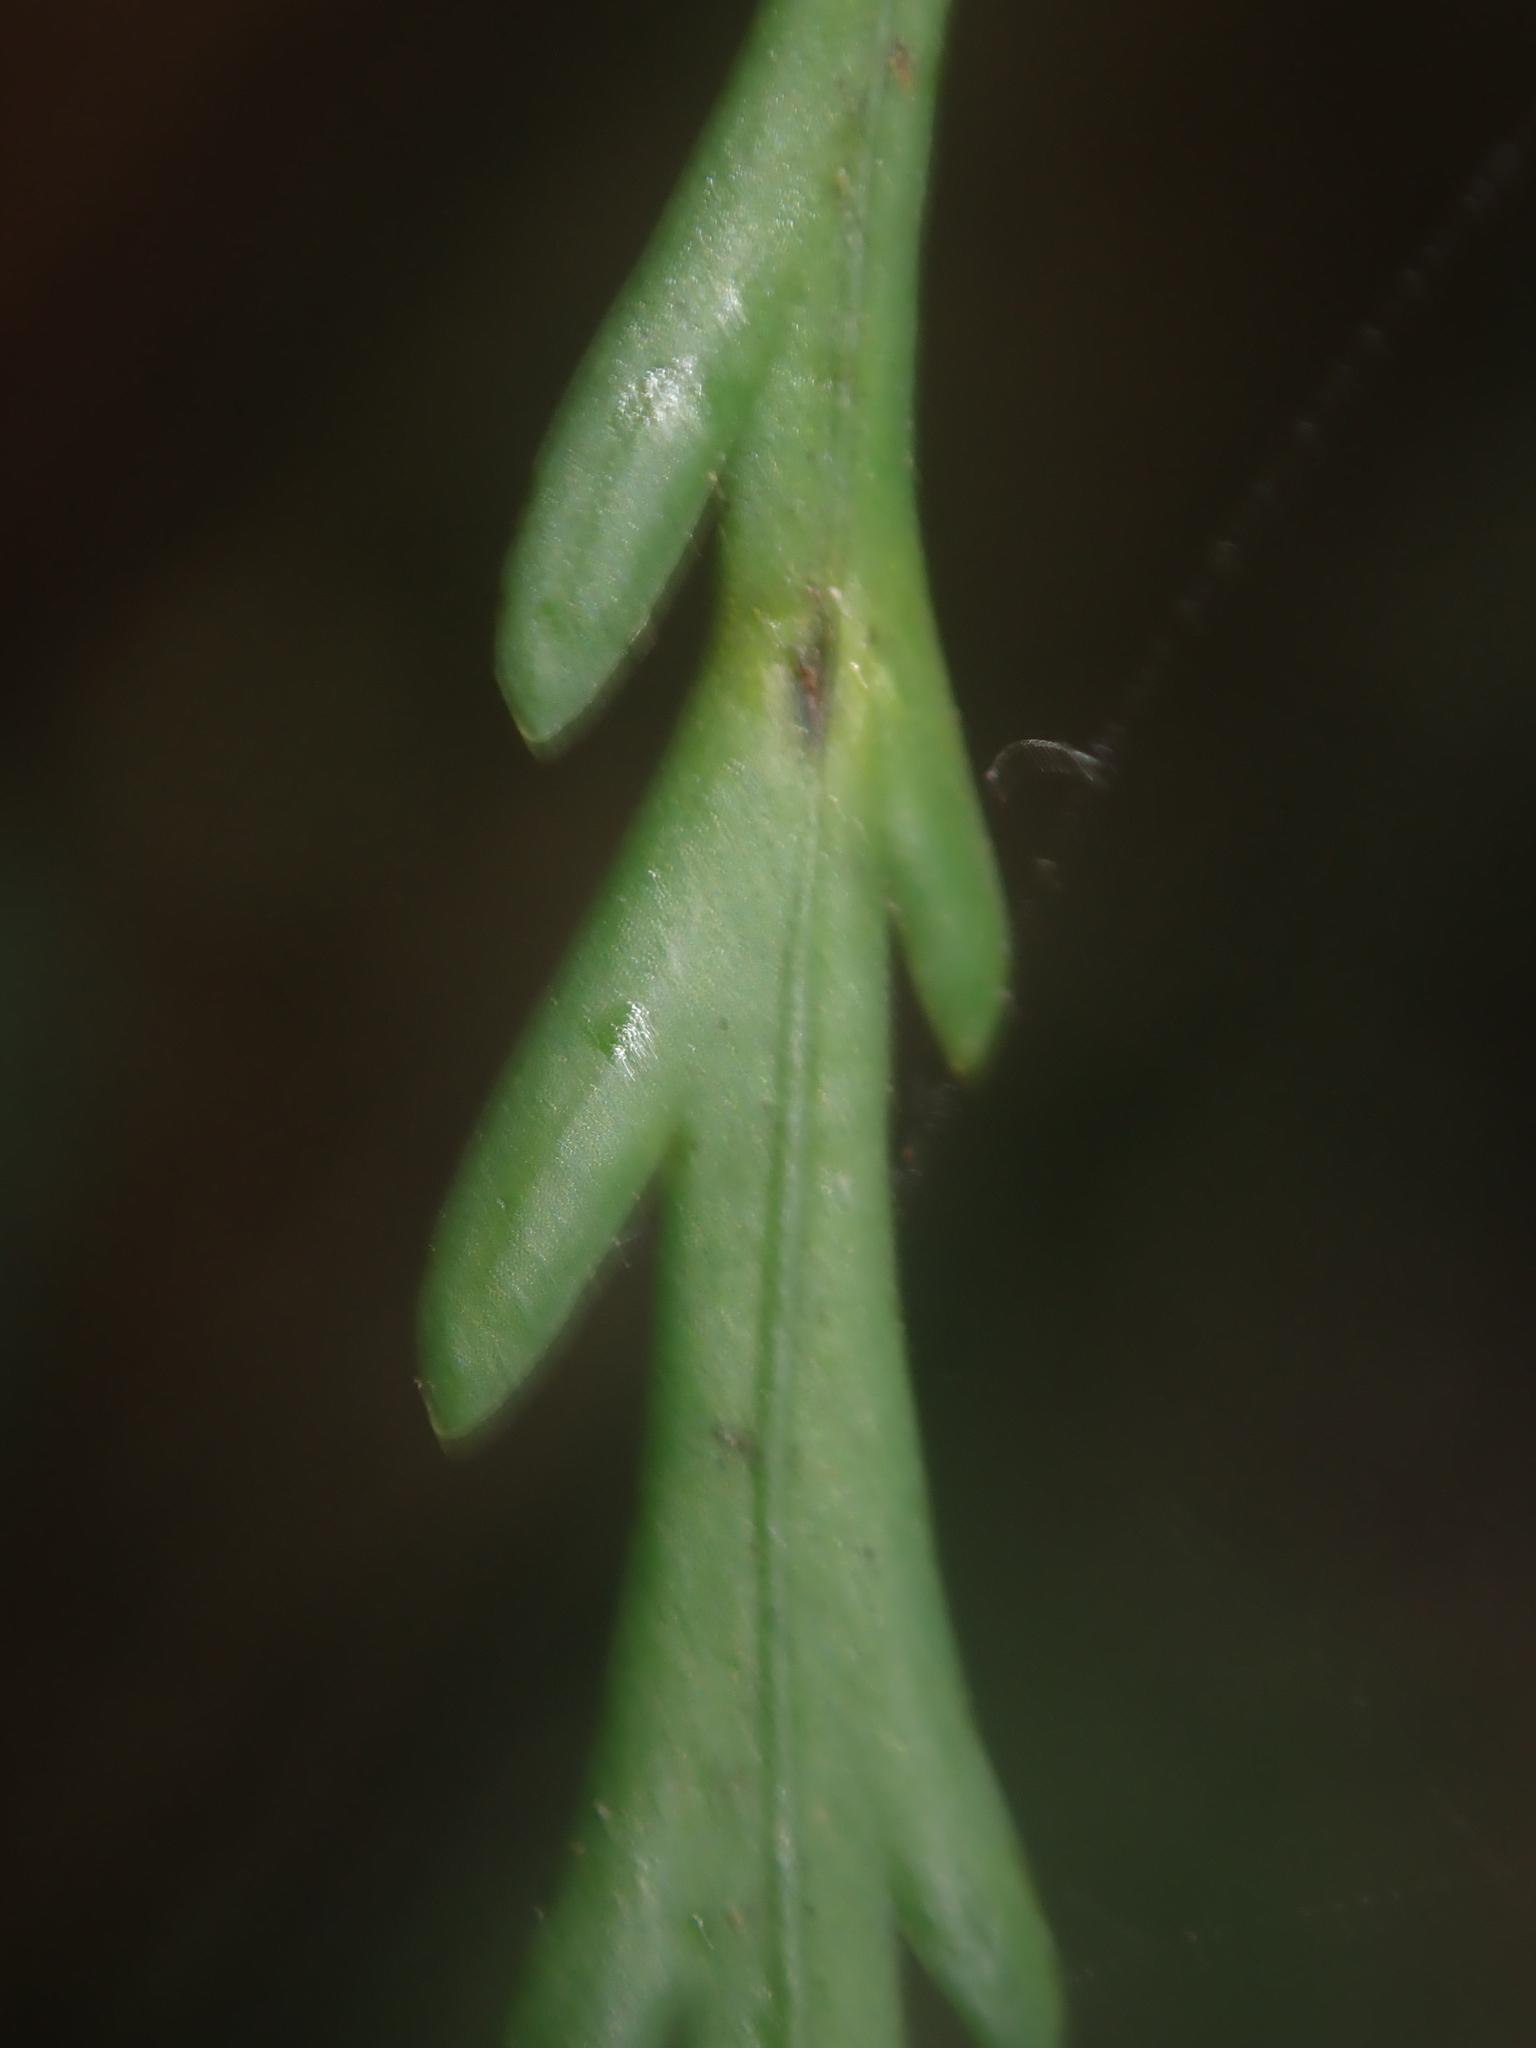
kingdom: Plantae
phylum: Tracheophyta
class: Polypodiopsida
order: Polypodiales
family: Aspleniaceae
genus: Asplenium
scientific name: Asplenium flaccidum
